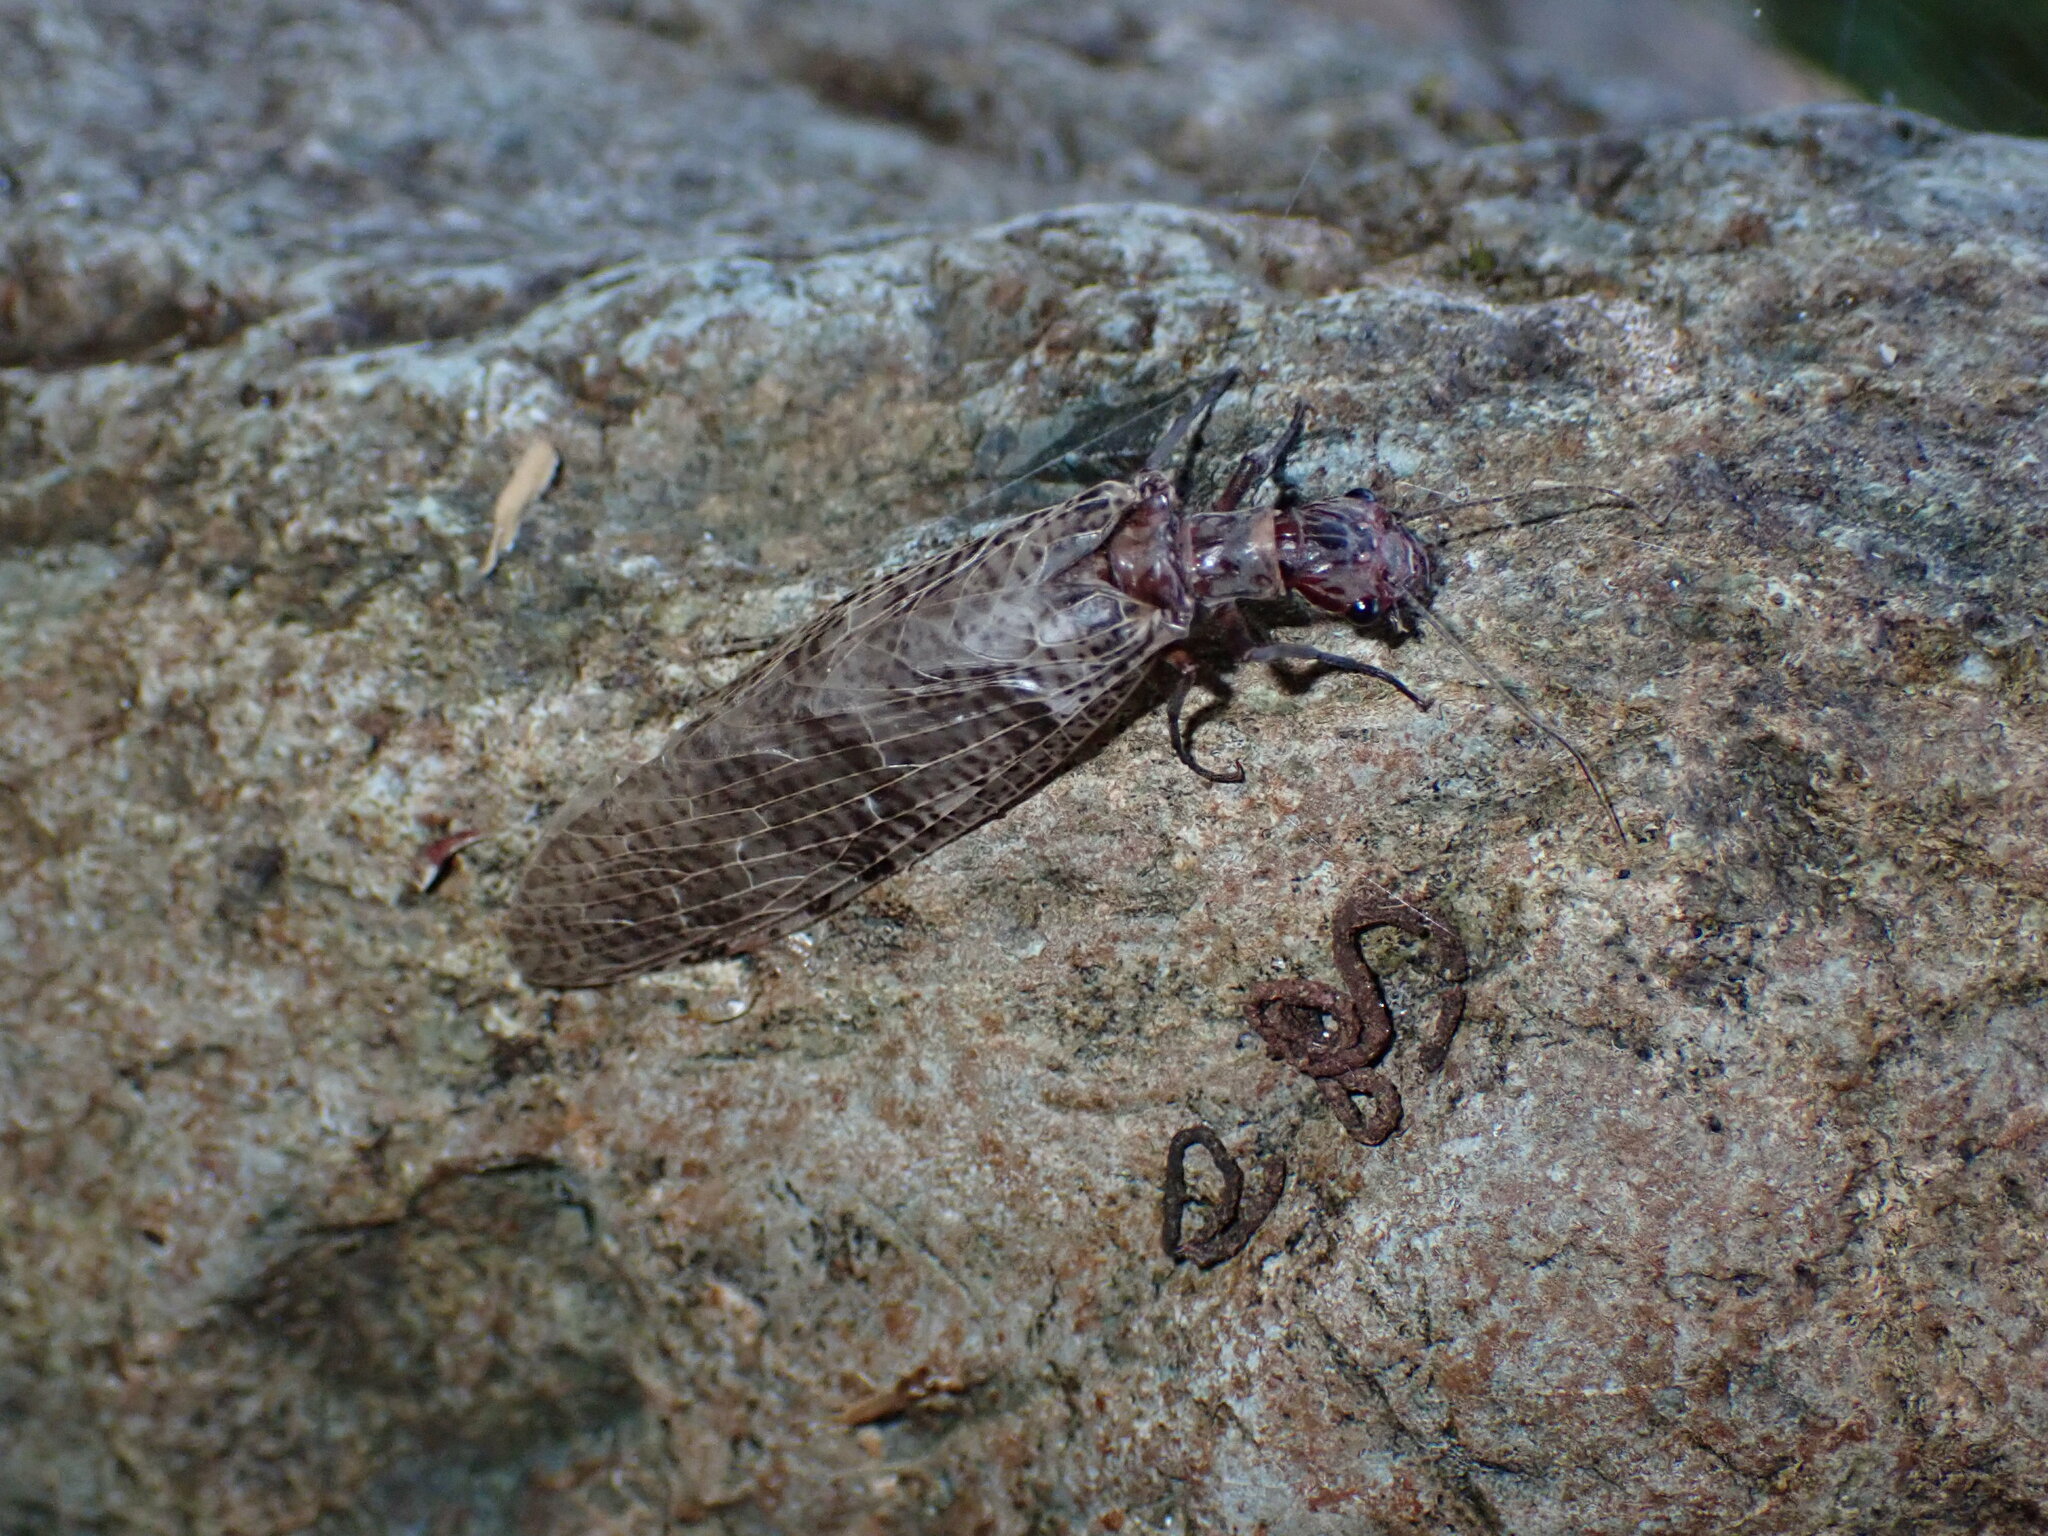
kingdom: Animalia
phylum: Arthropoda
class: Insecta
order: Megaloptera
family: Corydalidae
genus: Orohermes
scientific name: Orohermes crepusculus
